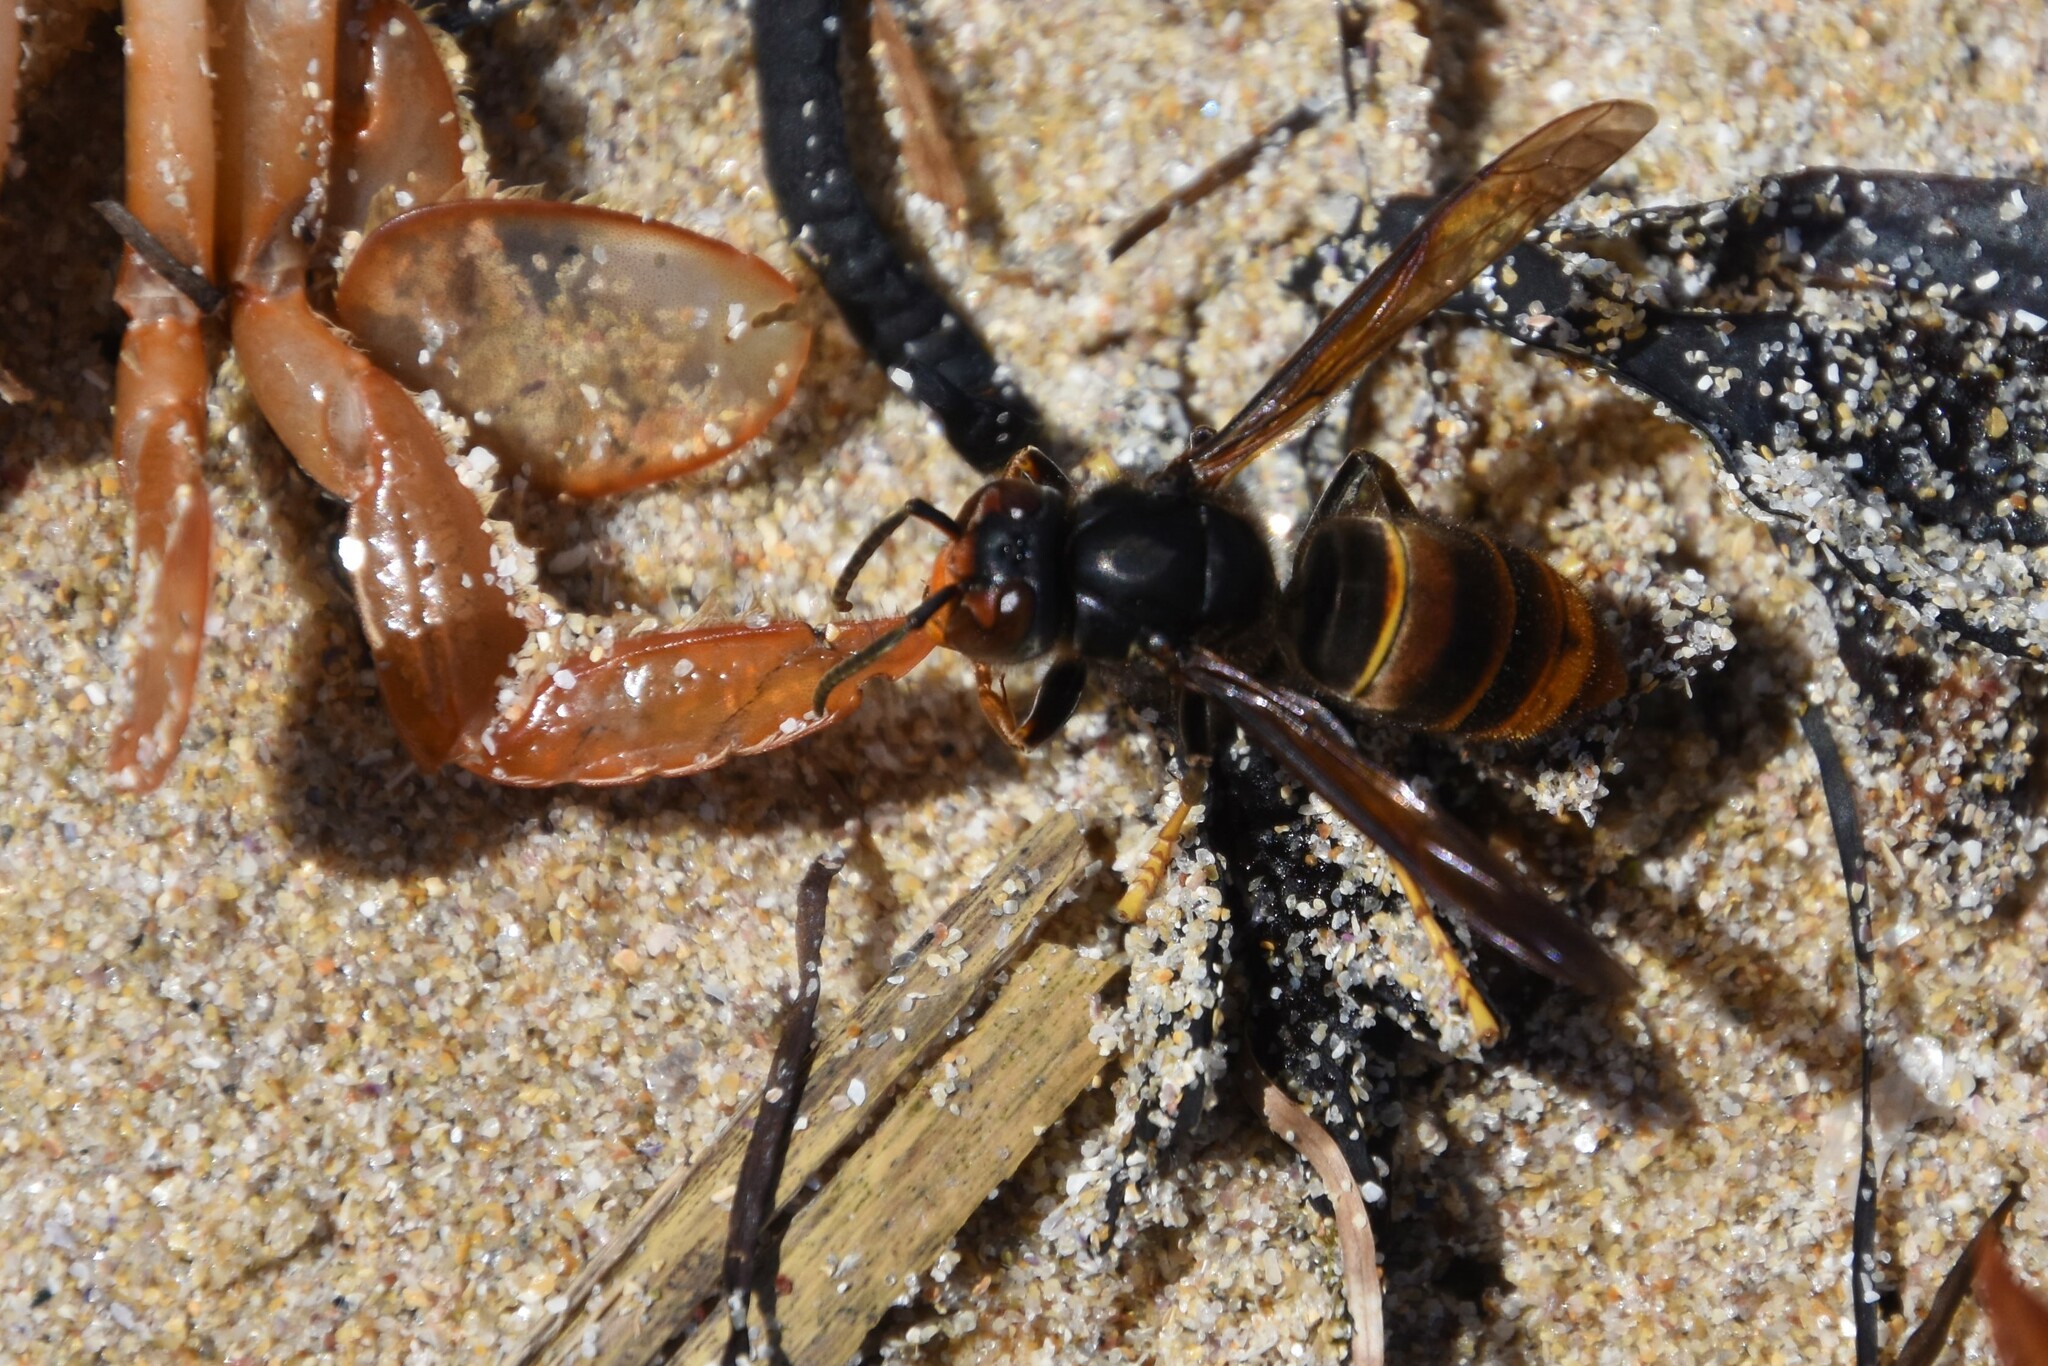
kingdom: Animalia
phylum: Arthropoda
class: Insecta
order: Hymenoptera
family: Vespidae
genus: Vespa
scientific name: Vespa velutina
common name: Asian hornet
